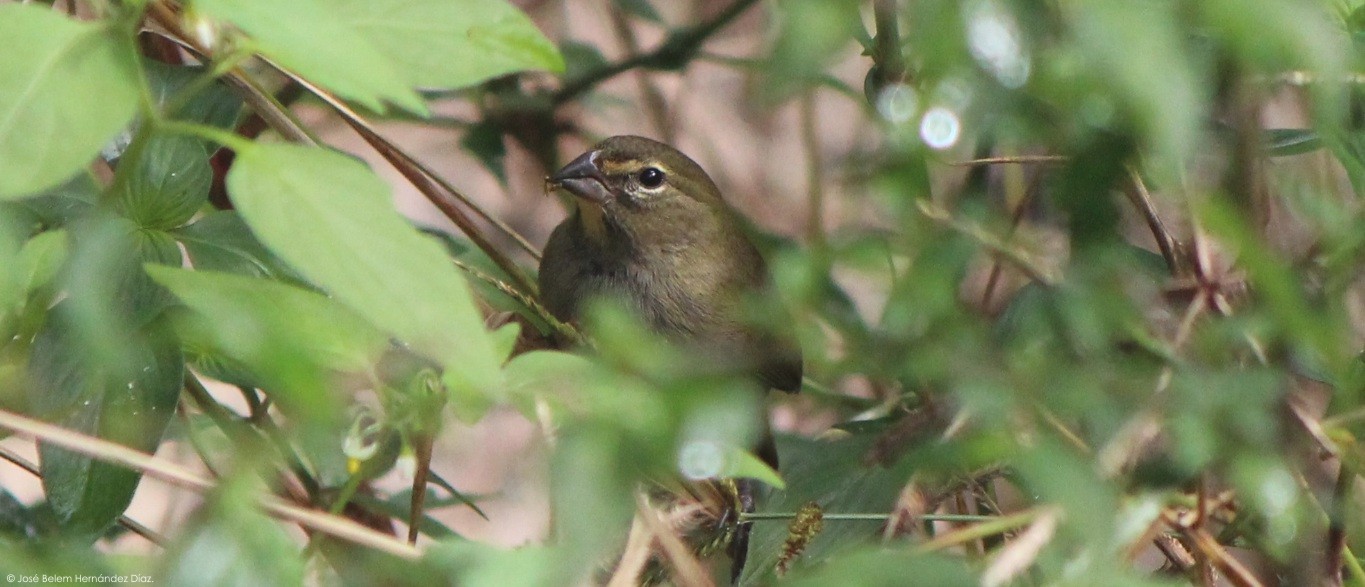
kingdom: Animalia
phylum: Chordata
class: Aves
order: Passeriformes
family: Thraupidae
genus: Tiaris
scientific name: Tiaris olivaceus
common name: Yellow-faced grassquit
